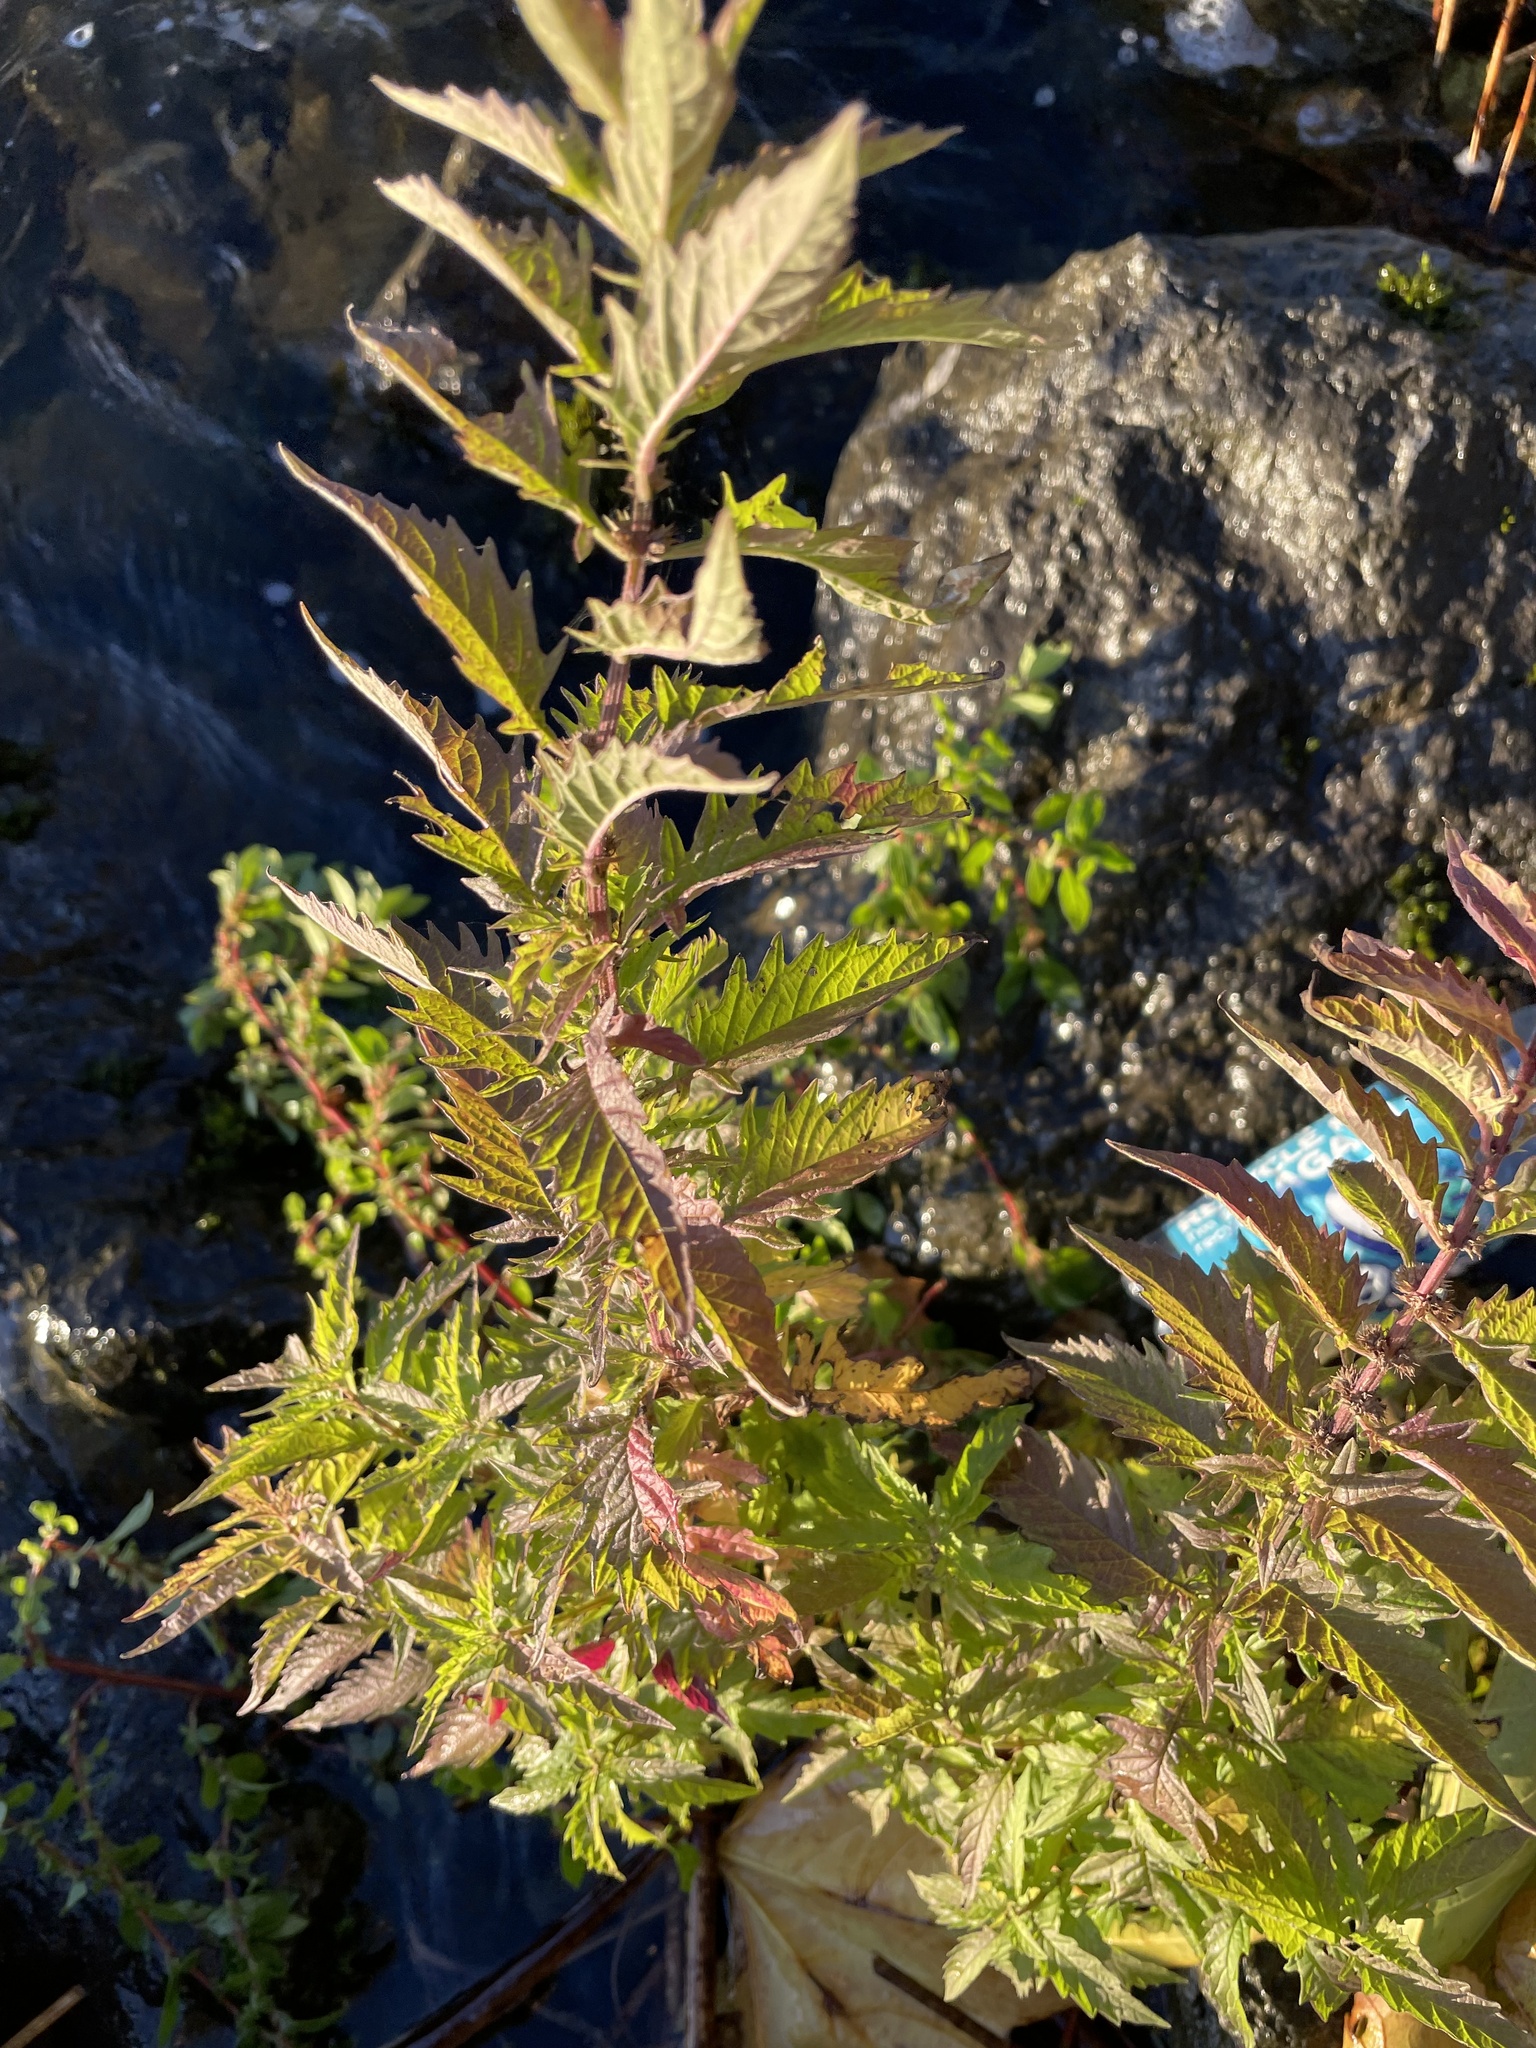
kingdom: Plantae
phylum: Tracheophyta
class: Magnoliopsida
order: Lamiales
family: Lamiaceae
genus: Lycopus
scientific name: Lycopus europaeus
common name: European bugleweed
